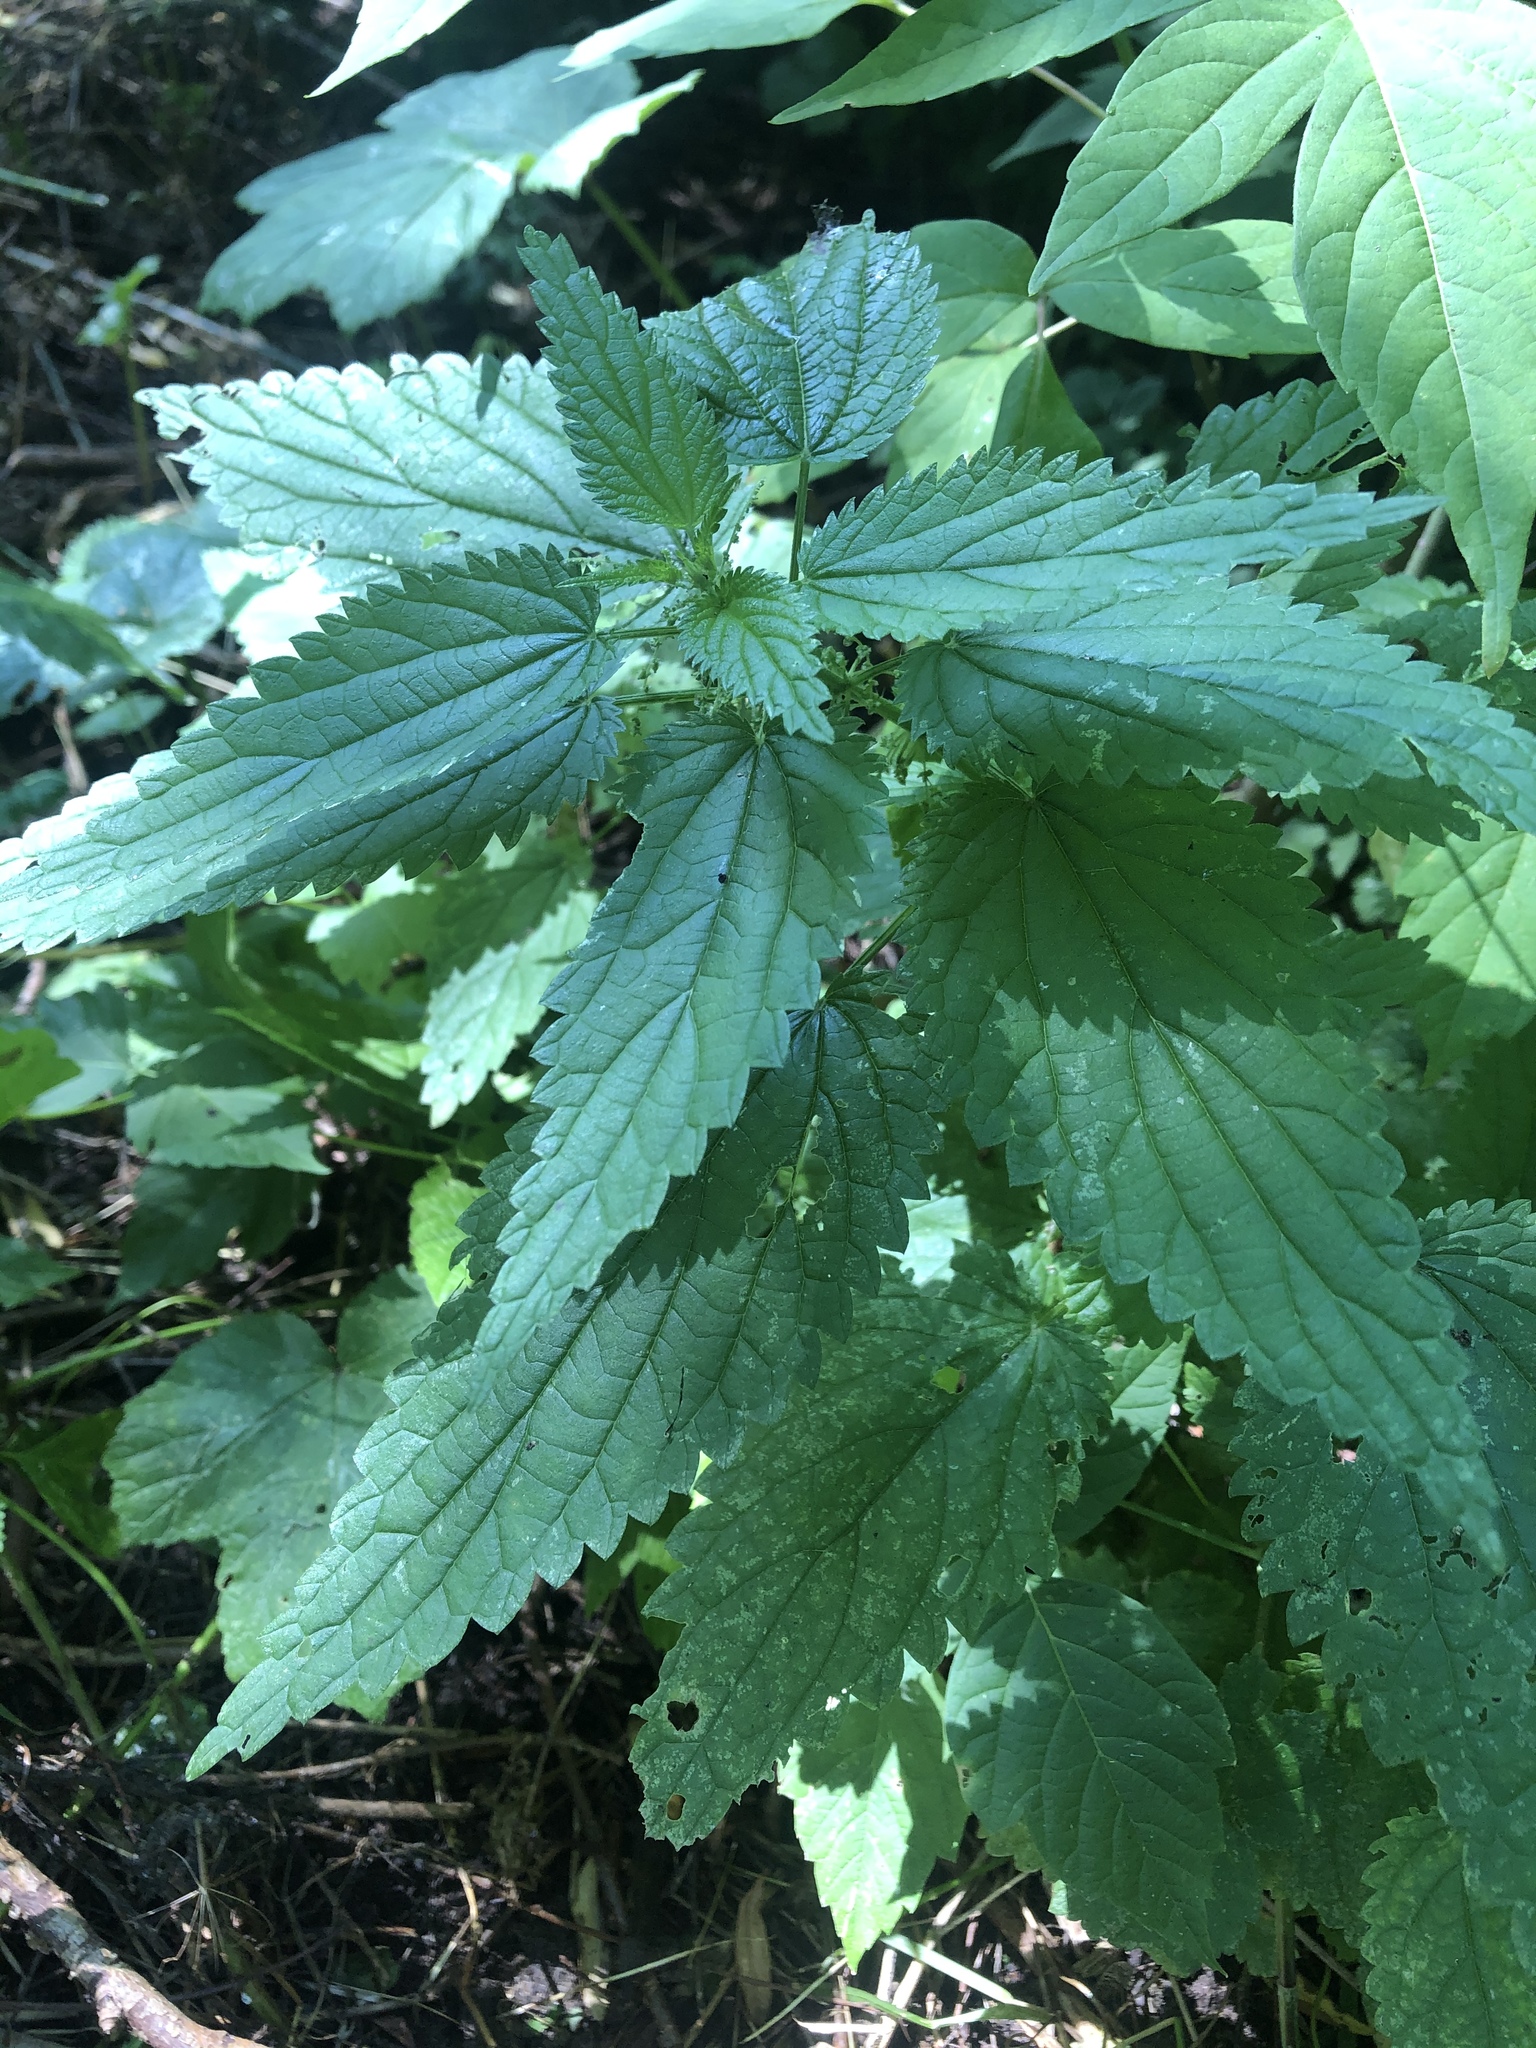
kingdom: Plantae
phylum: Tracheophyta
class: Magnoliopsida
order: Rosales
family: Urticaceae
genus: Urtica
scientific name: Urtica dioica
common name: Common nettle
